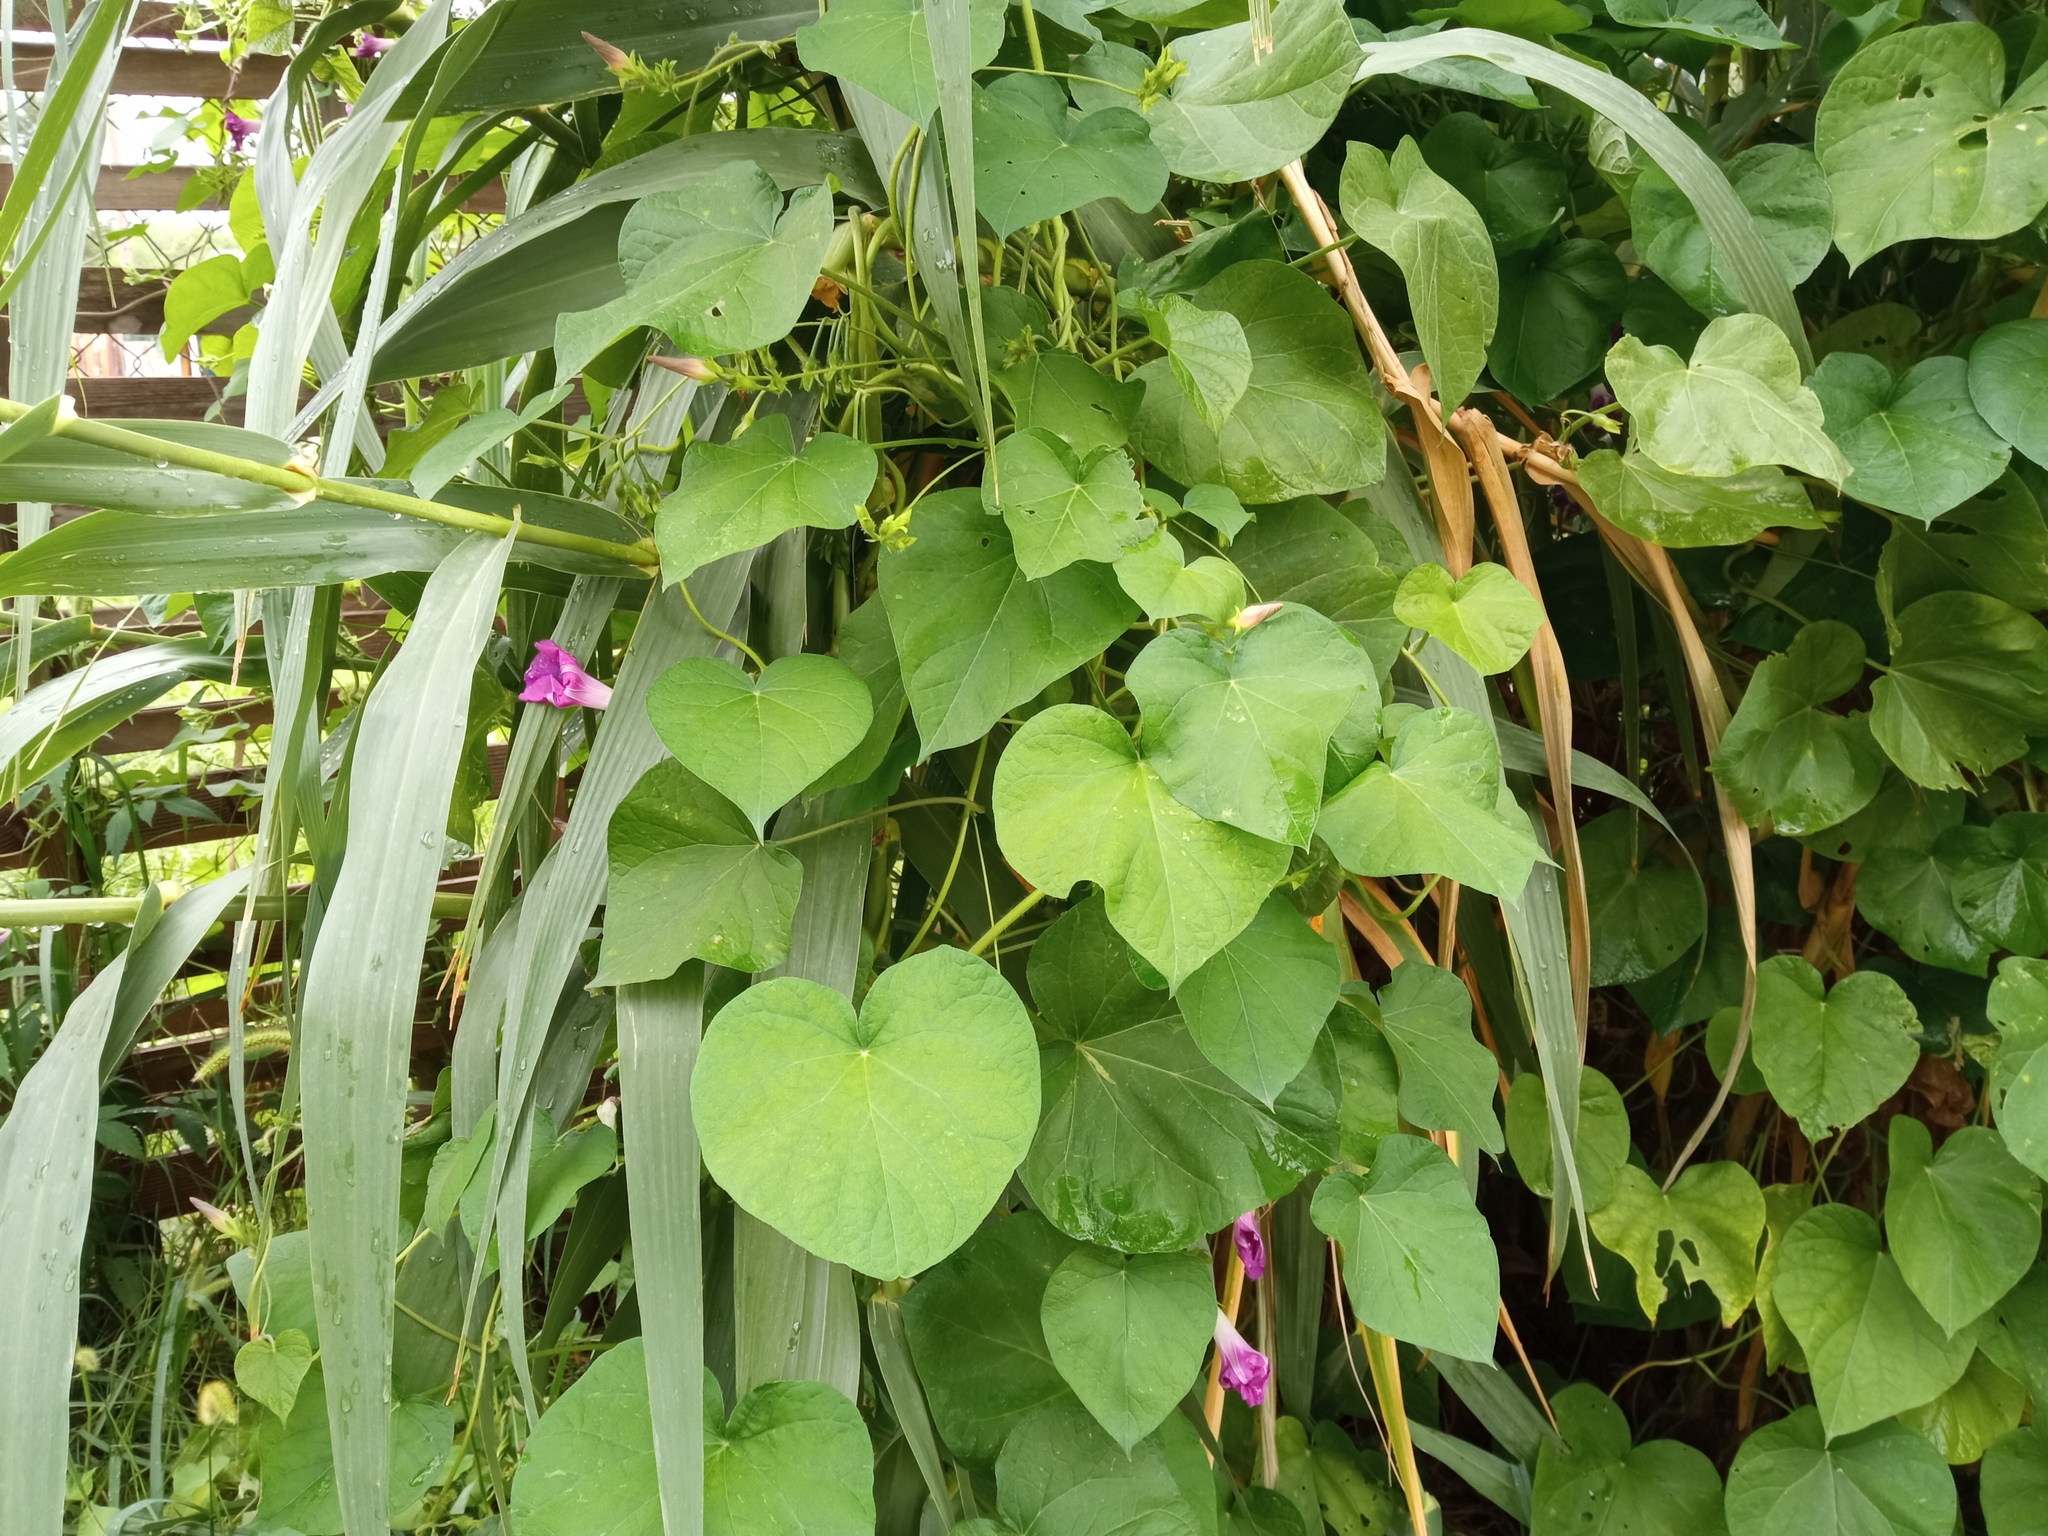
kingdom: Plantae
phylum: Tracheophyta
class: Magnoliopsida
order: Solanales
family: Convolvulaceae
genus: Ipomoea
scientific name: Ipomoea purpurea
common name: Common morning-glory
